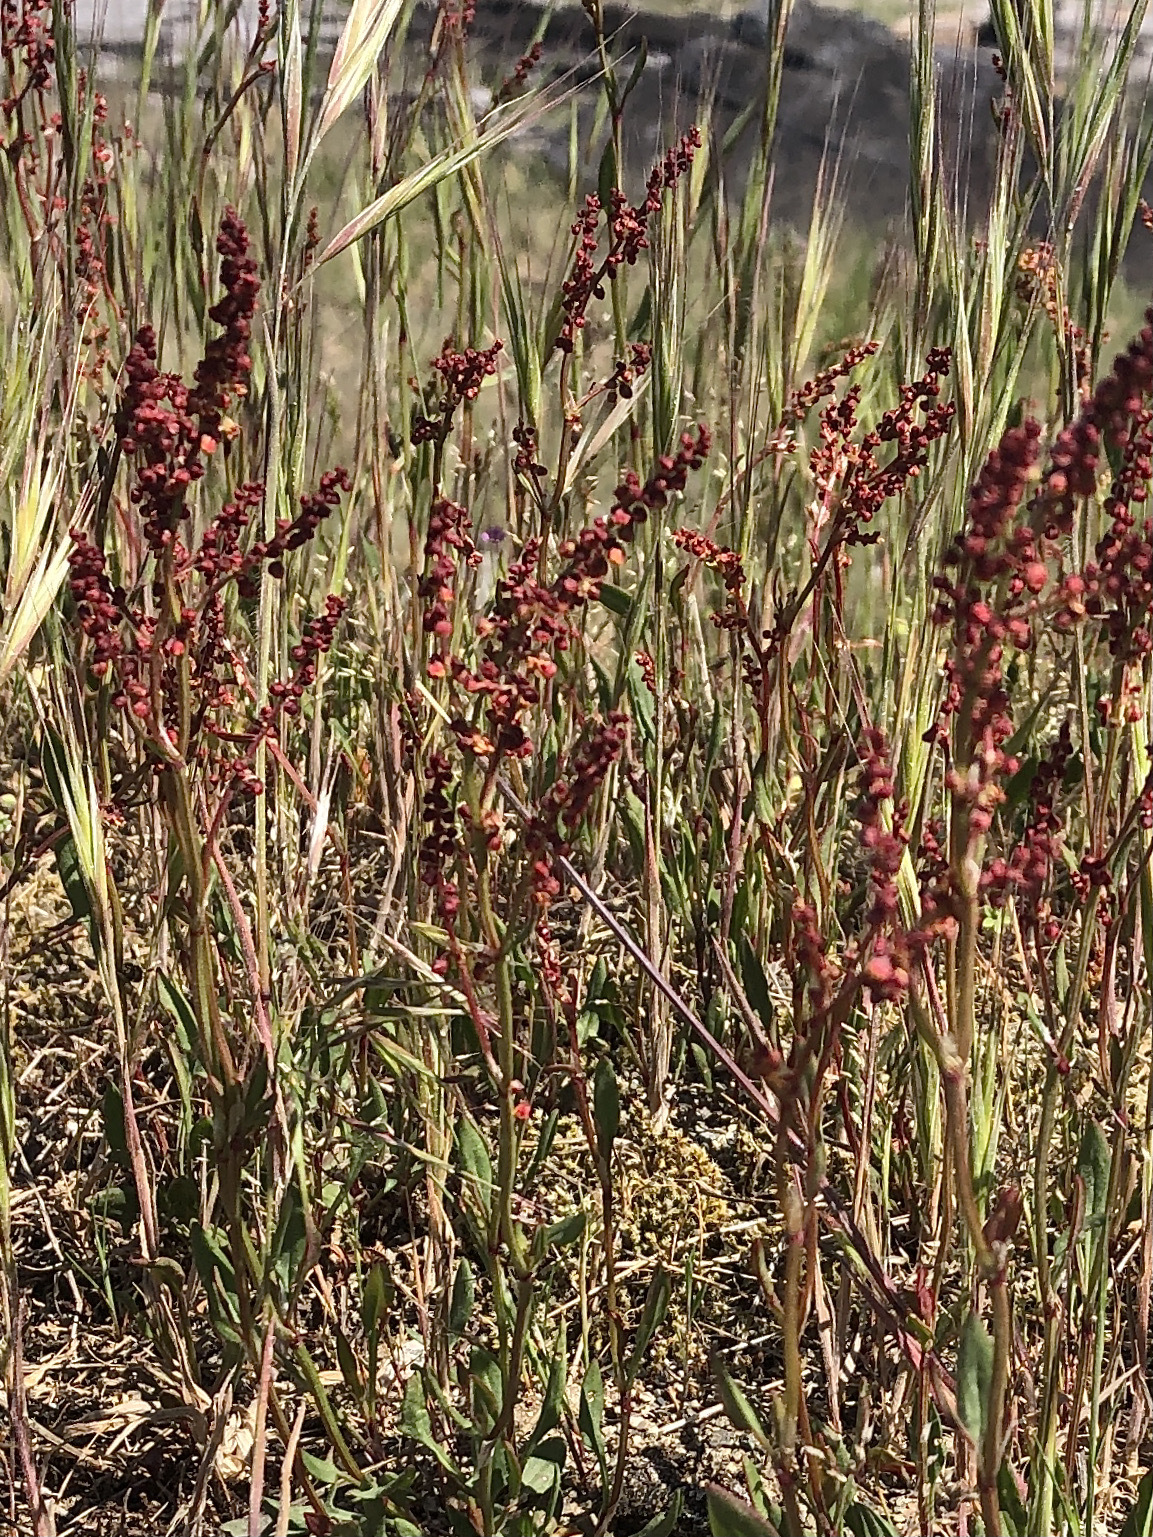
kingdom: Plantae
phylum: Tracheophyta
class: Magnoliopsida
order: Caryophyllales
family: Polygonaceae
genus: Rumex
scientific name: Rumex acetosella
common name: Common sheep sorrel
